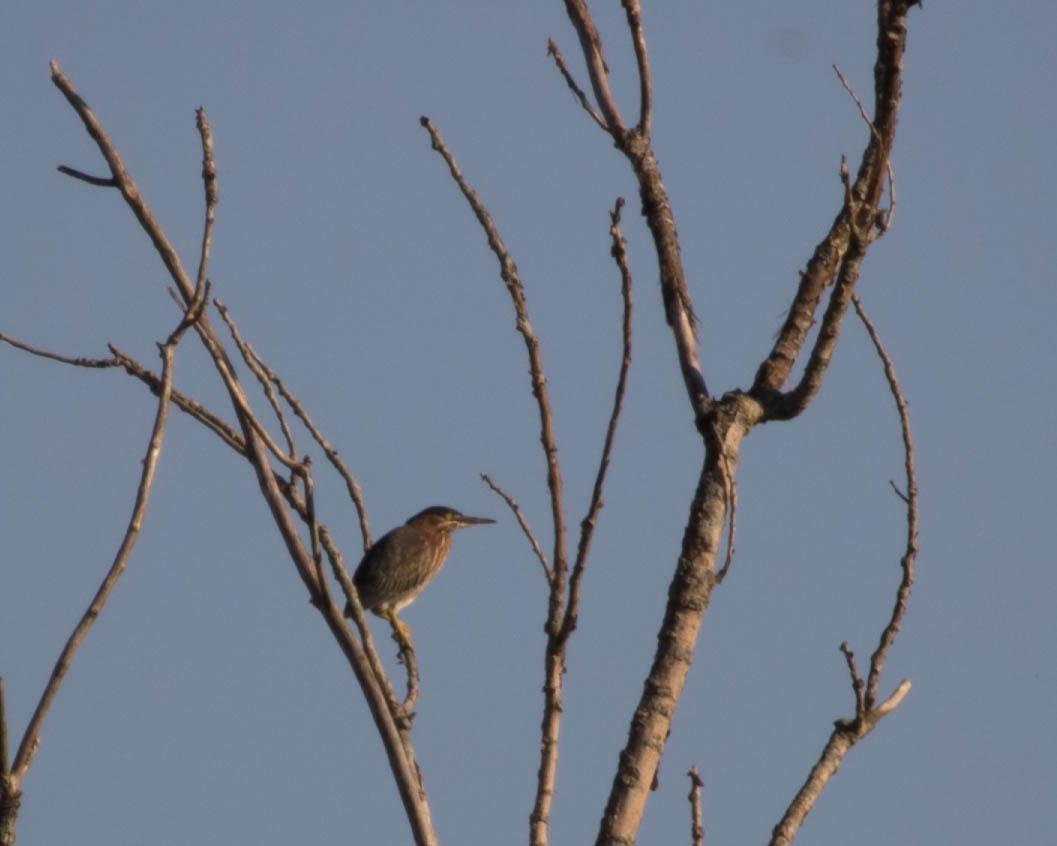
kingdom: Animalia
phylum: Chordata
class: Aves
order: Pelecaniformes
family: Ardeidae
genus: Butorides
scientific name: Butorides virescens
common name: Green heron
